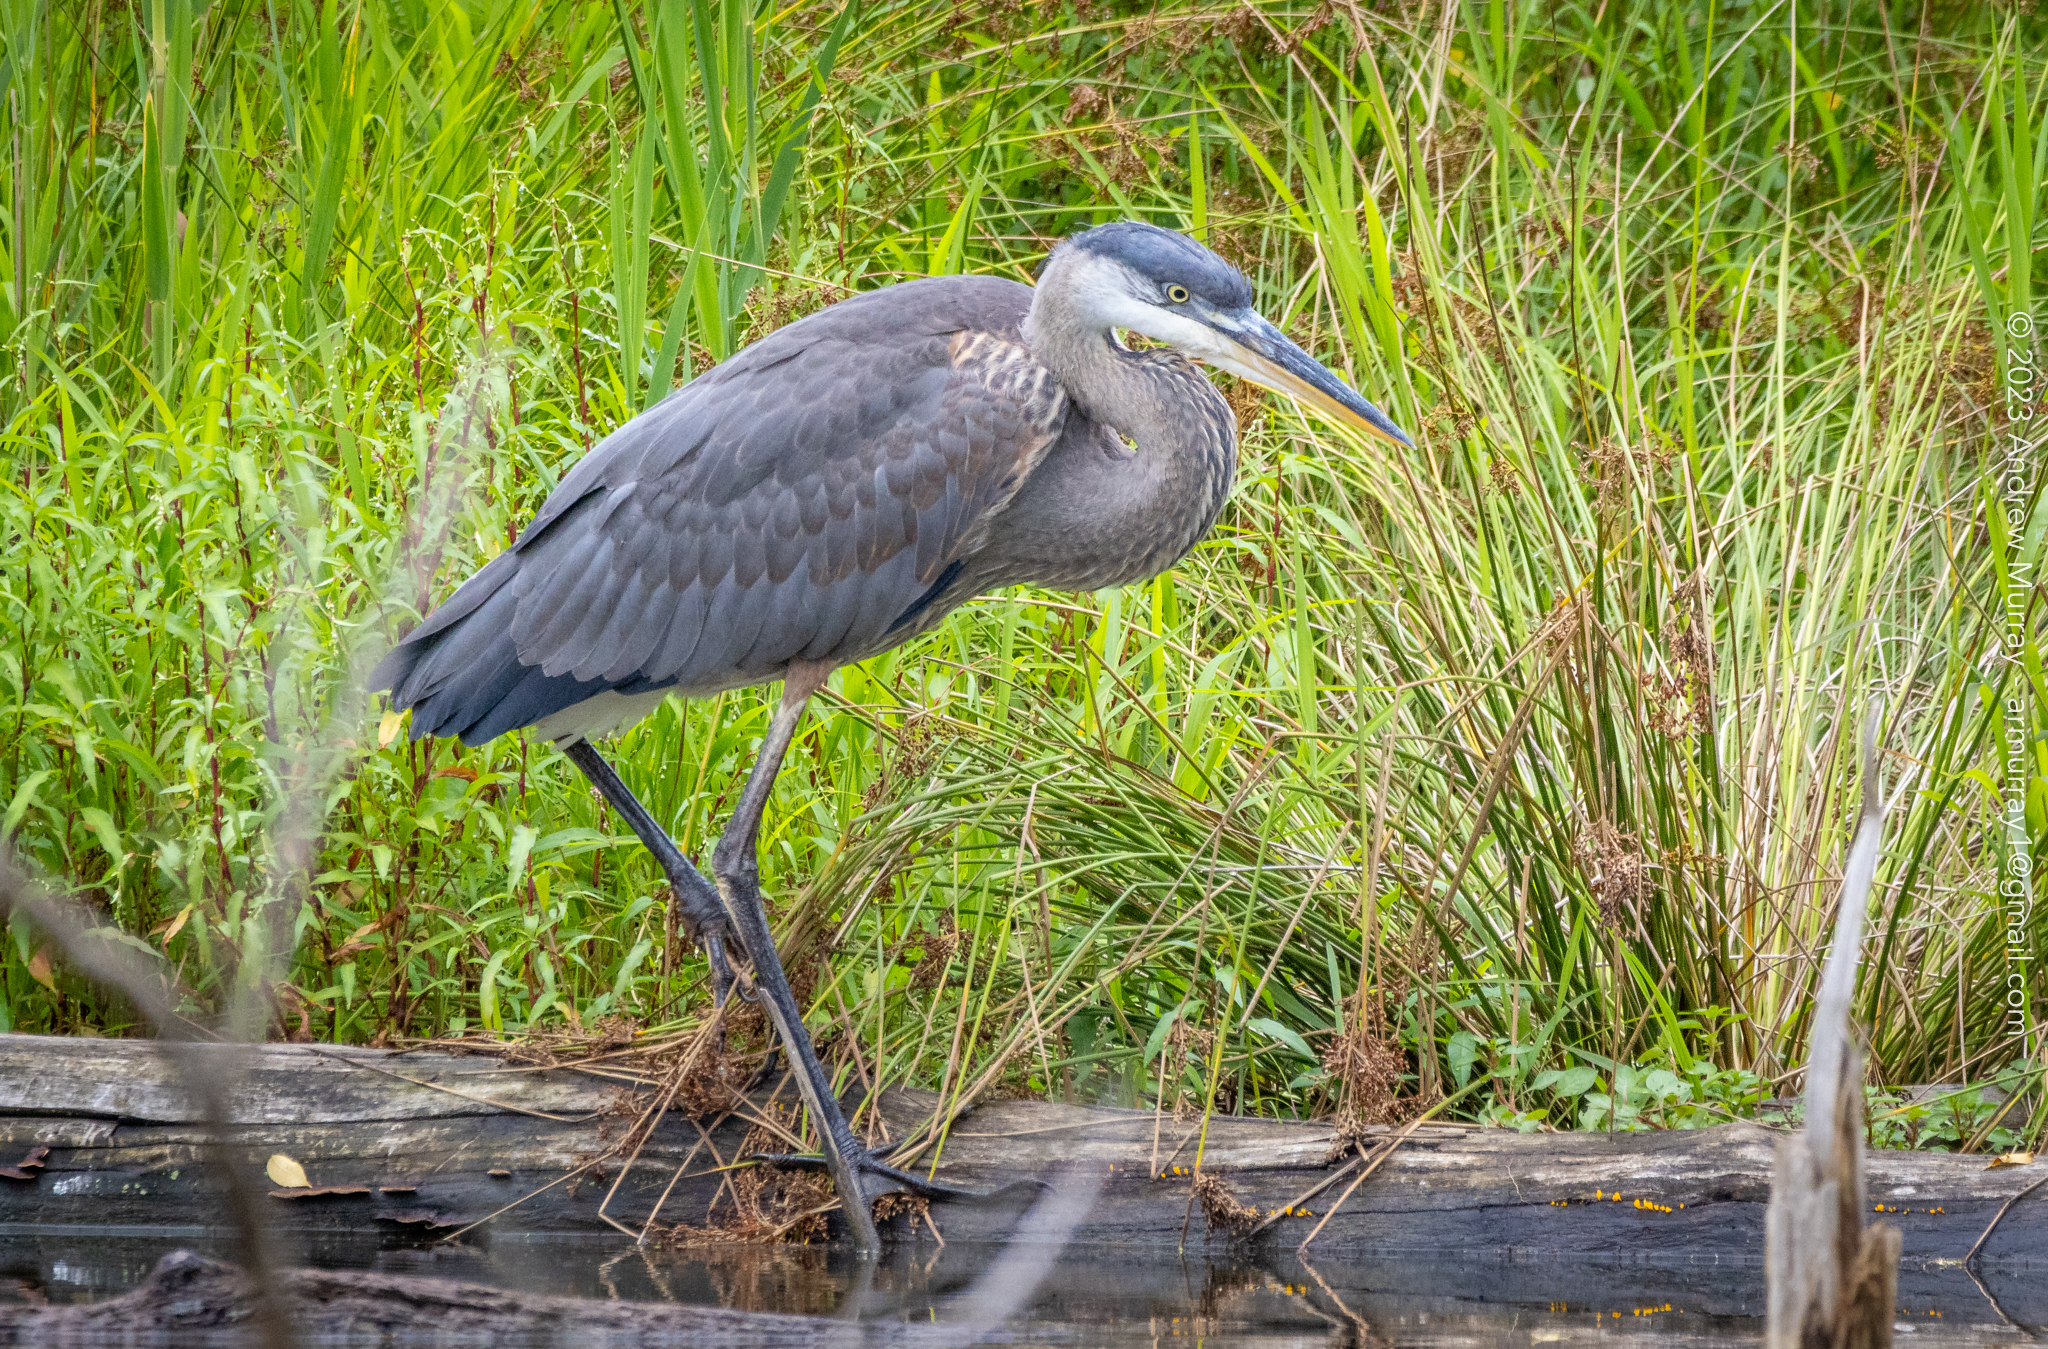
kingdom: Animalia
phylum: Chordata
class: Aves
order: Pelecaniformes
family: Ardeidae
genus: Ardea
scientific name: Ardea herodias
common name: Great blue heron
